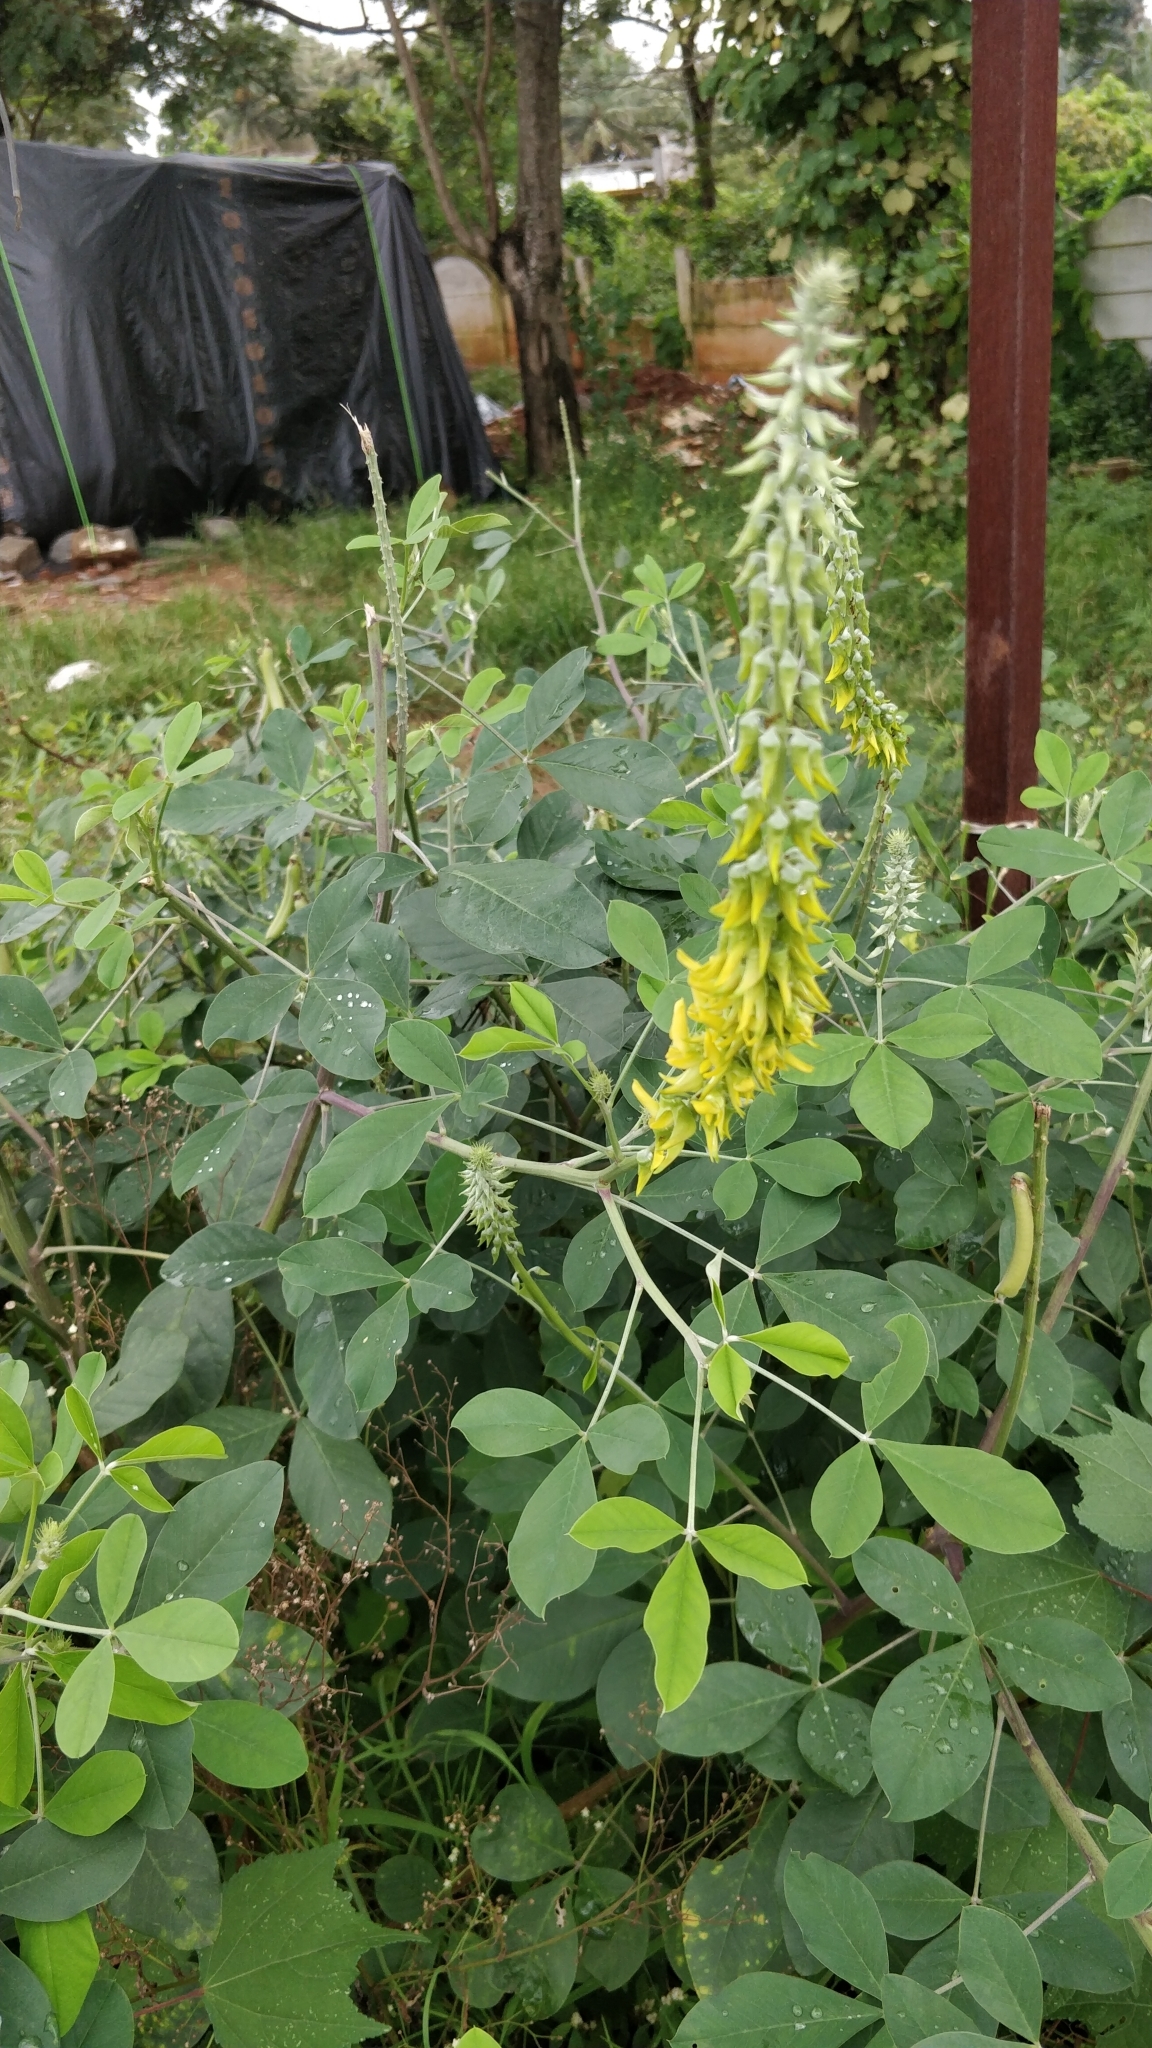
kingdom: Plantae
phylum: Tracheophyta
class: Magnoliopsida
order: Fabales
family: Fabaceae
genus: Crotalaria
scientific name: Crotalaria pallida
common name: Smooth rattlebox
